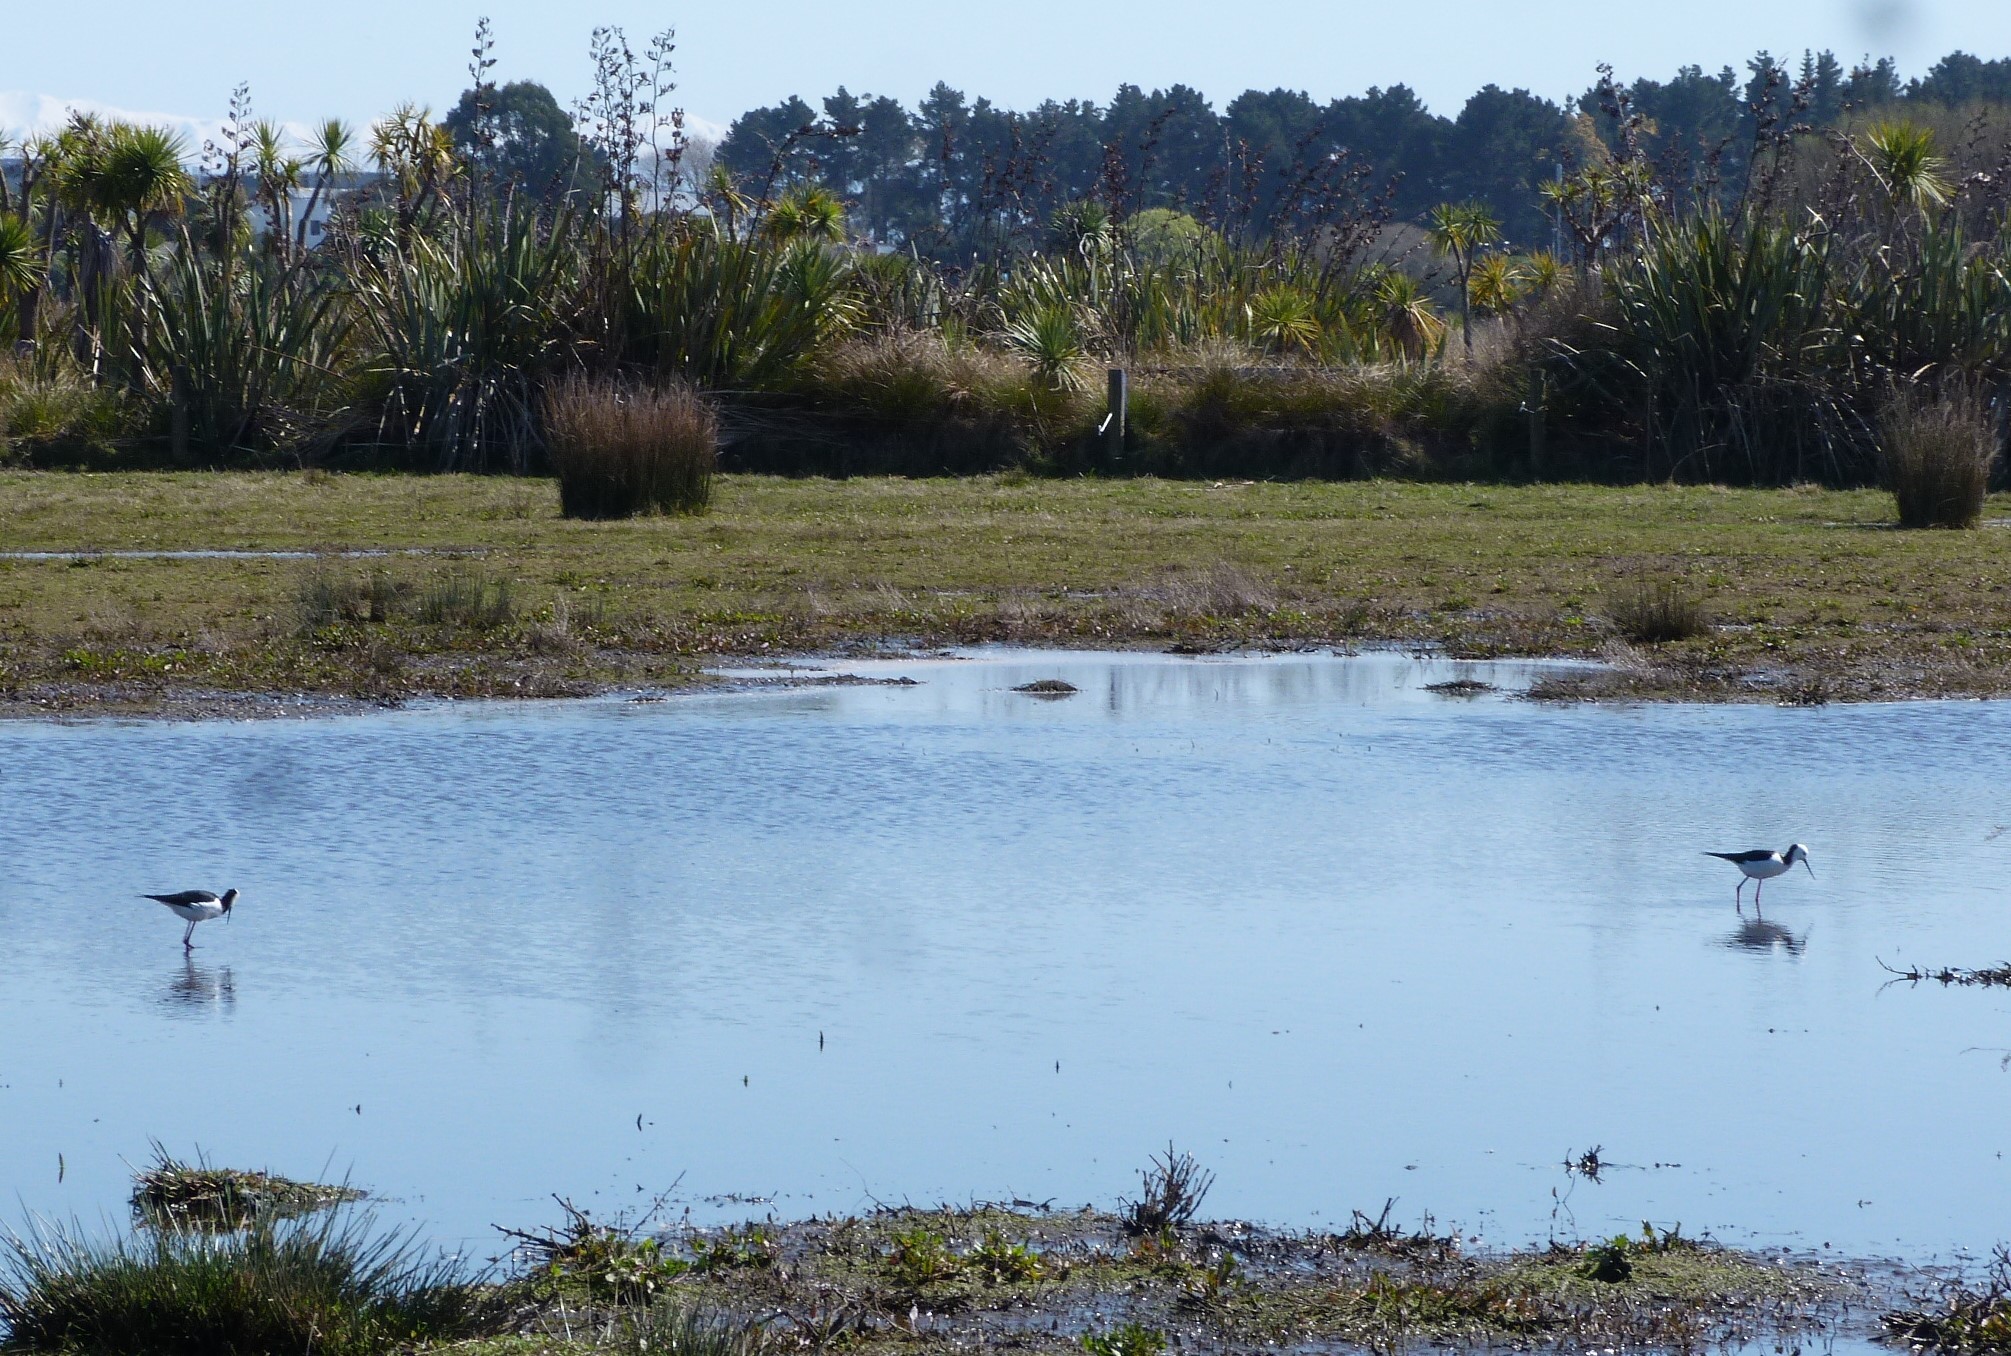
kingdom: Animalia
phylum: Chordata
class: Aves
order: Charadriiformes
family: Recurvirostridae
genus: Himantopus
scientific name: Himantopus leucocephalus
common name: White-headed stilt
